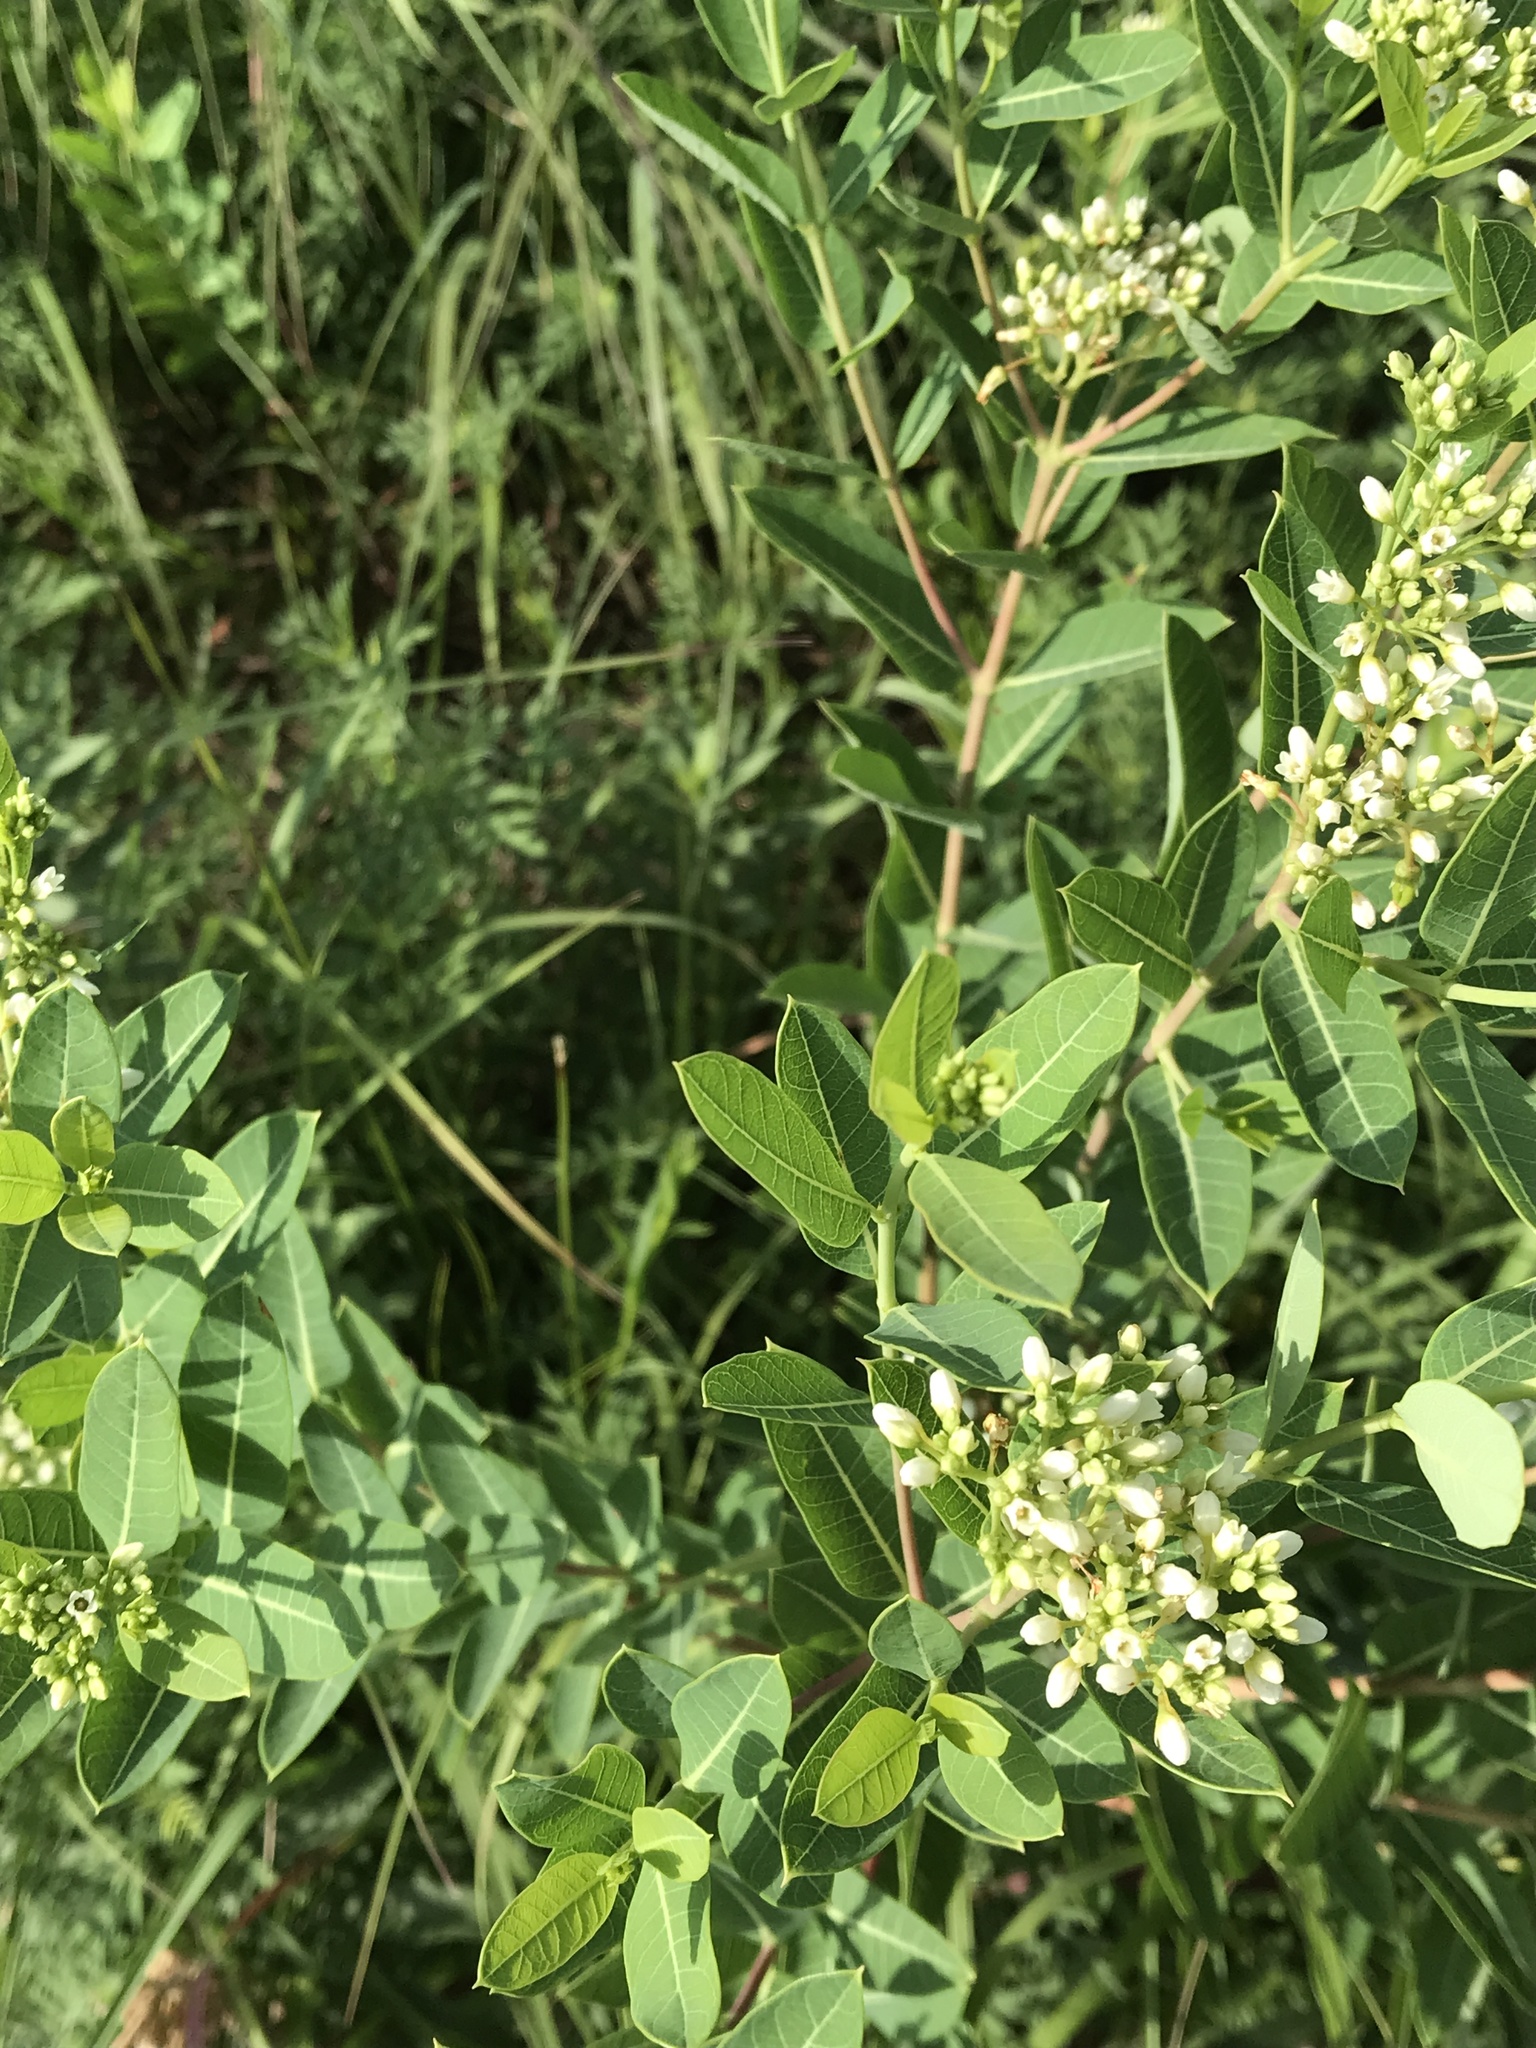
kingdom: Plantae
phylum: Tracheophyta
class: Magnoliopsida
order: Gentianales
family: Apocynaceae
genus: Apocynum
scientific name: Apocynum cannabinum
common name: Hemp dogbane
